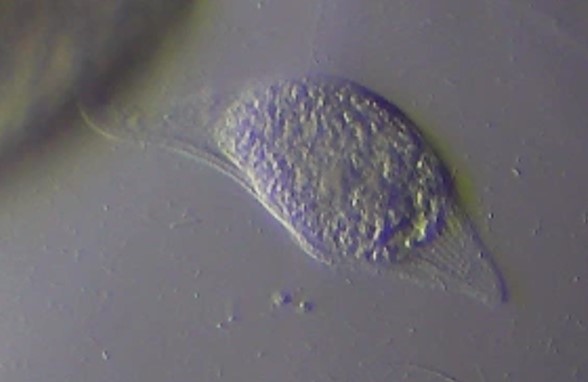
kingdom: Chromista
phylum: Ciliophora
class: Gymnostomatea
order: Pleurostomatida
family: Litonotidae
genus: Litonotus
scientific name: Litonotus cygnus
